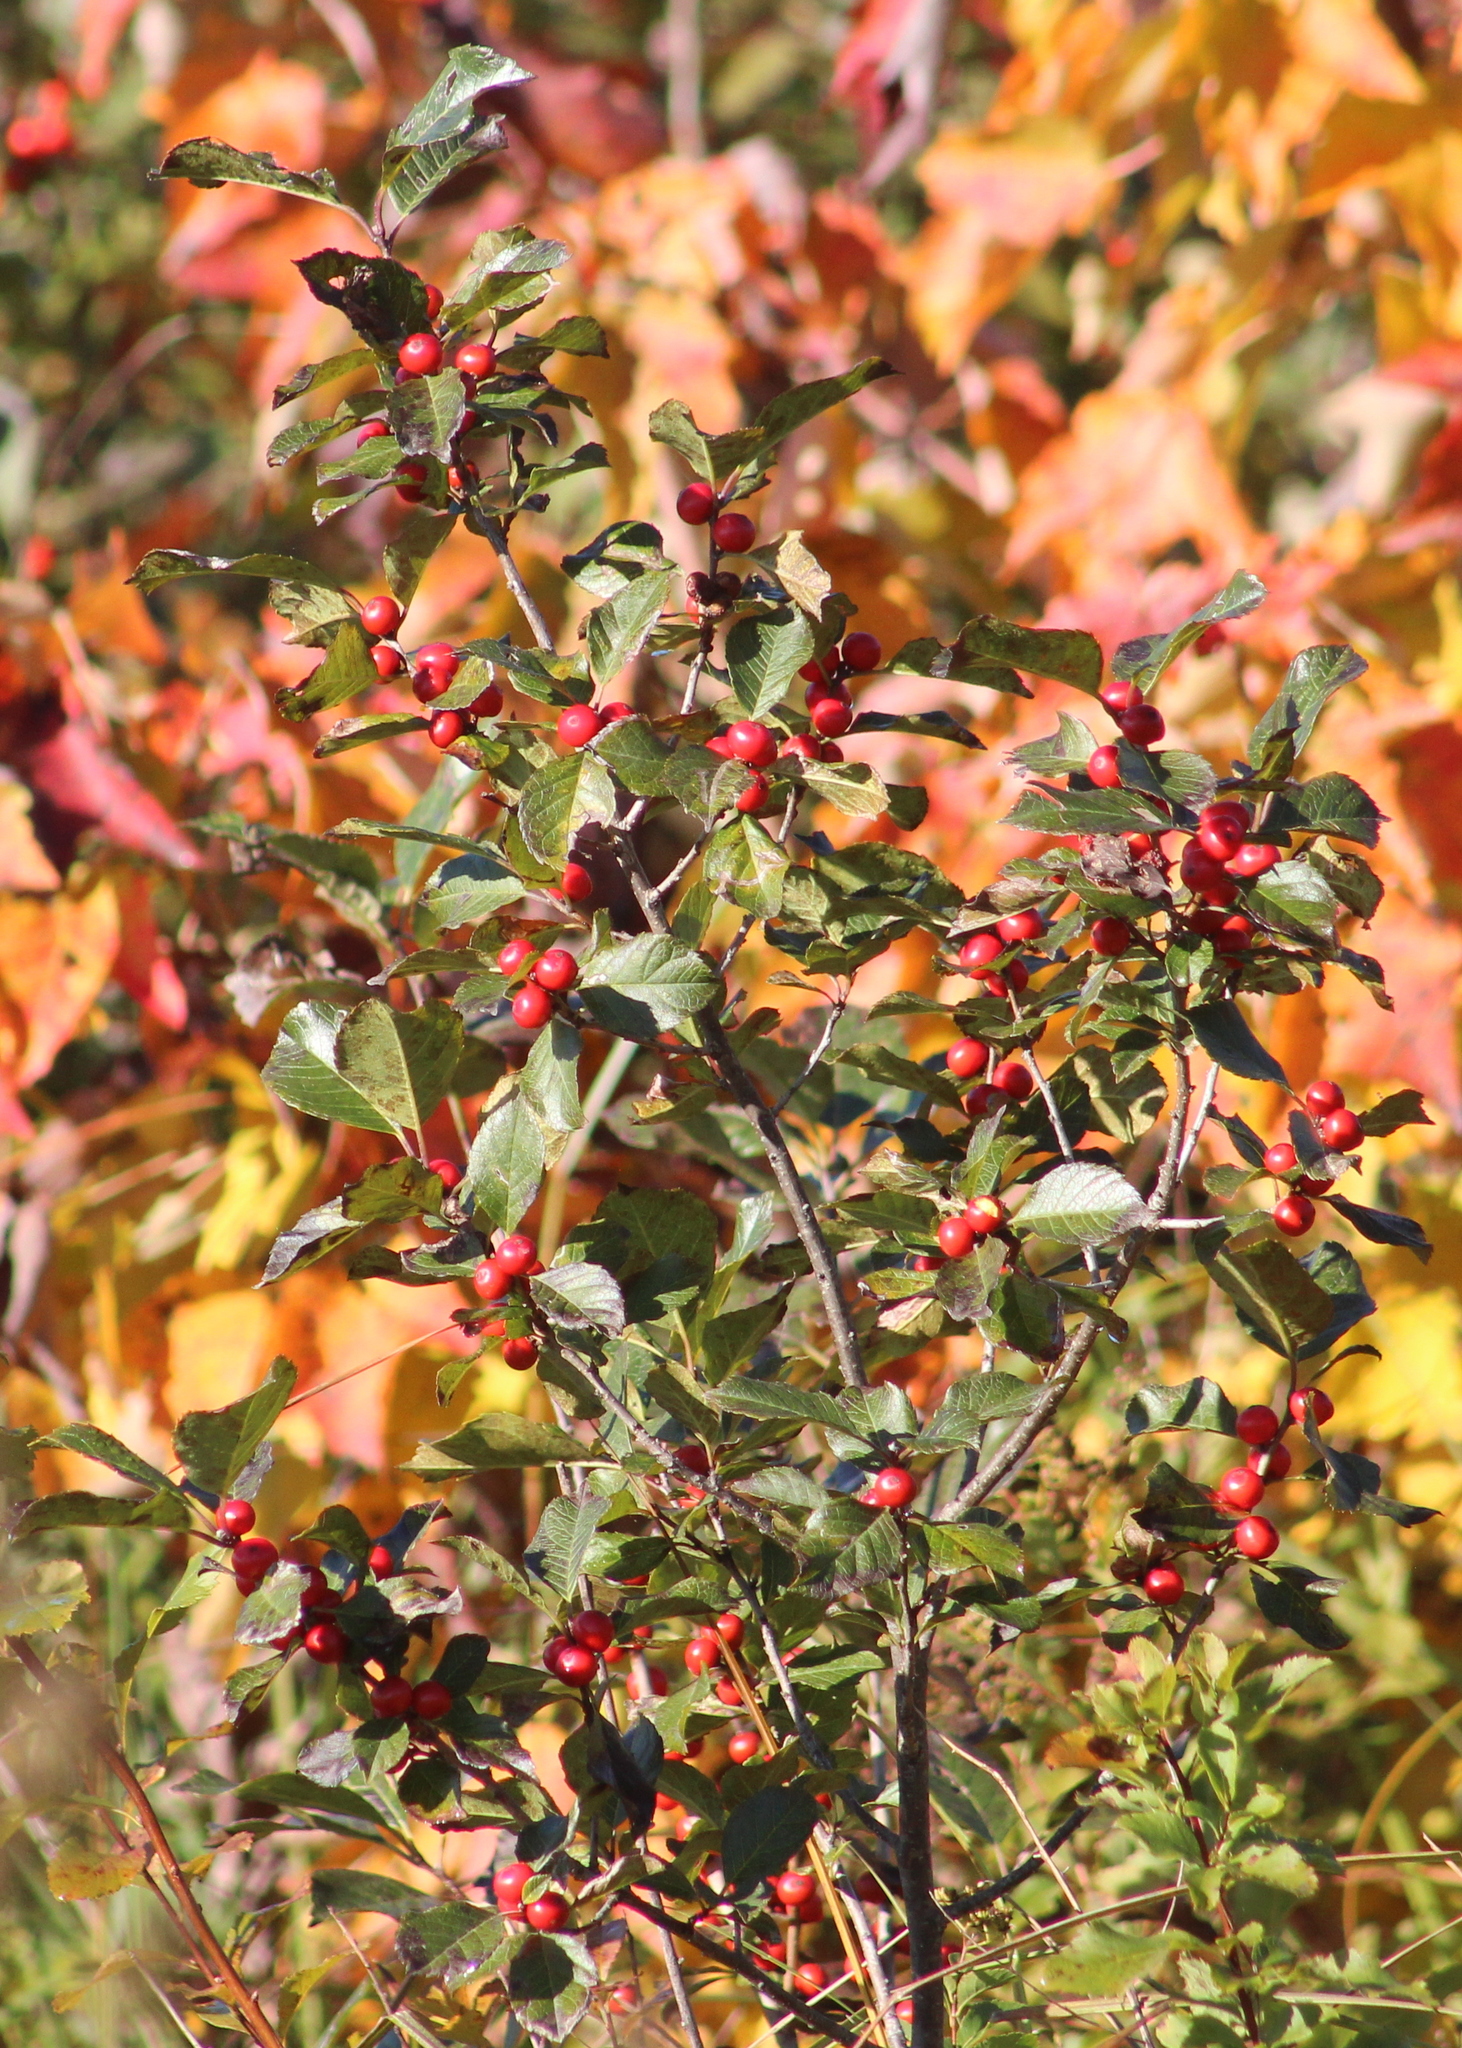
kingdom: Plantae
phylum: Tracheophyta
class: Magnoliopsida
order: Aquifoliales
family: Aquifoliaceae
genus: Ilex
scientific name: Ilex verticillata
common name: Virginia winterberry
